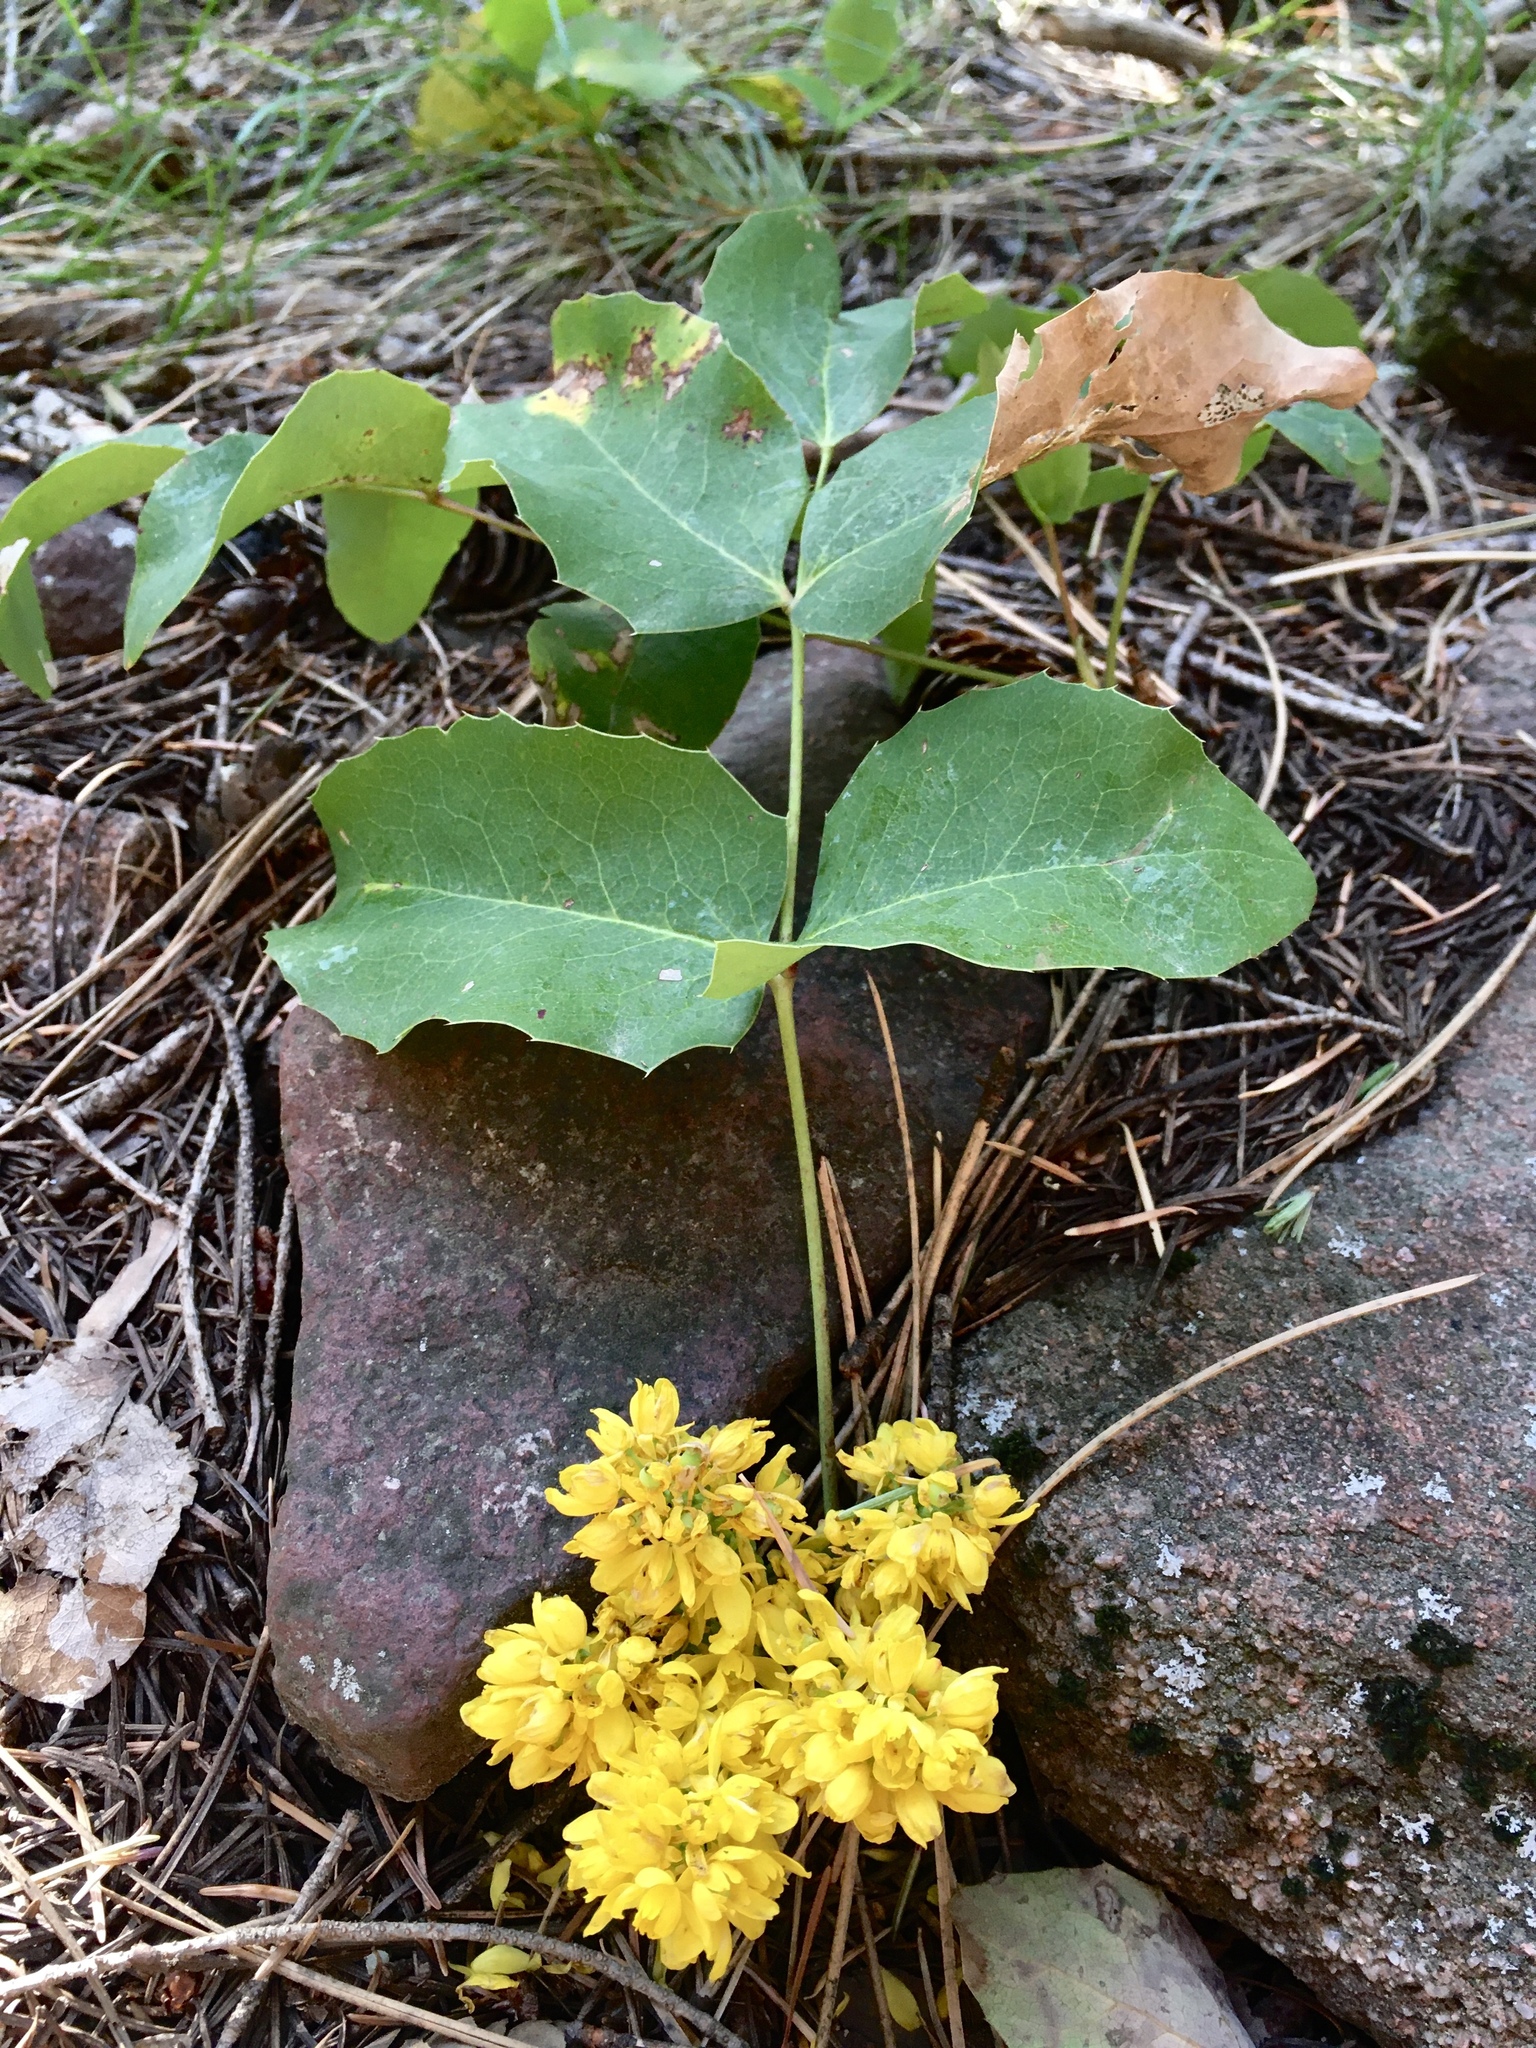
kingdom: Plantae
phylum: Tracheophyta
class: Magnoliopsida
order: Ranunculales
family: Berberidaceae
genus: Mahonia
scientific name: Mahonia repens
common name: Creeping oregon-grape
